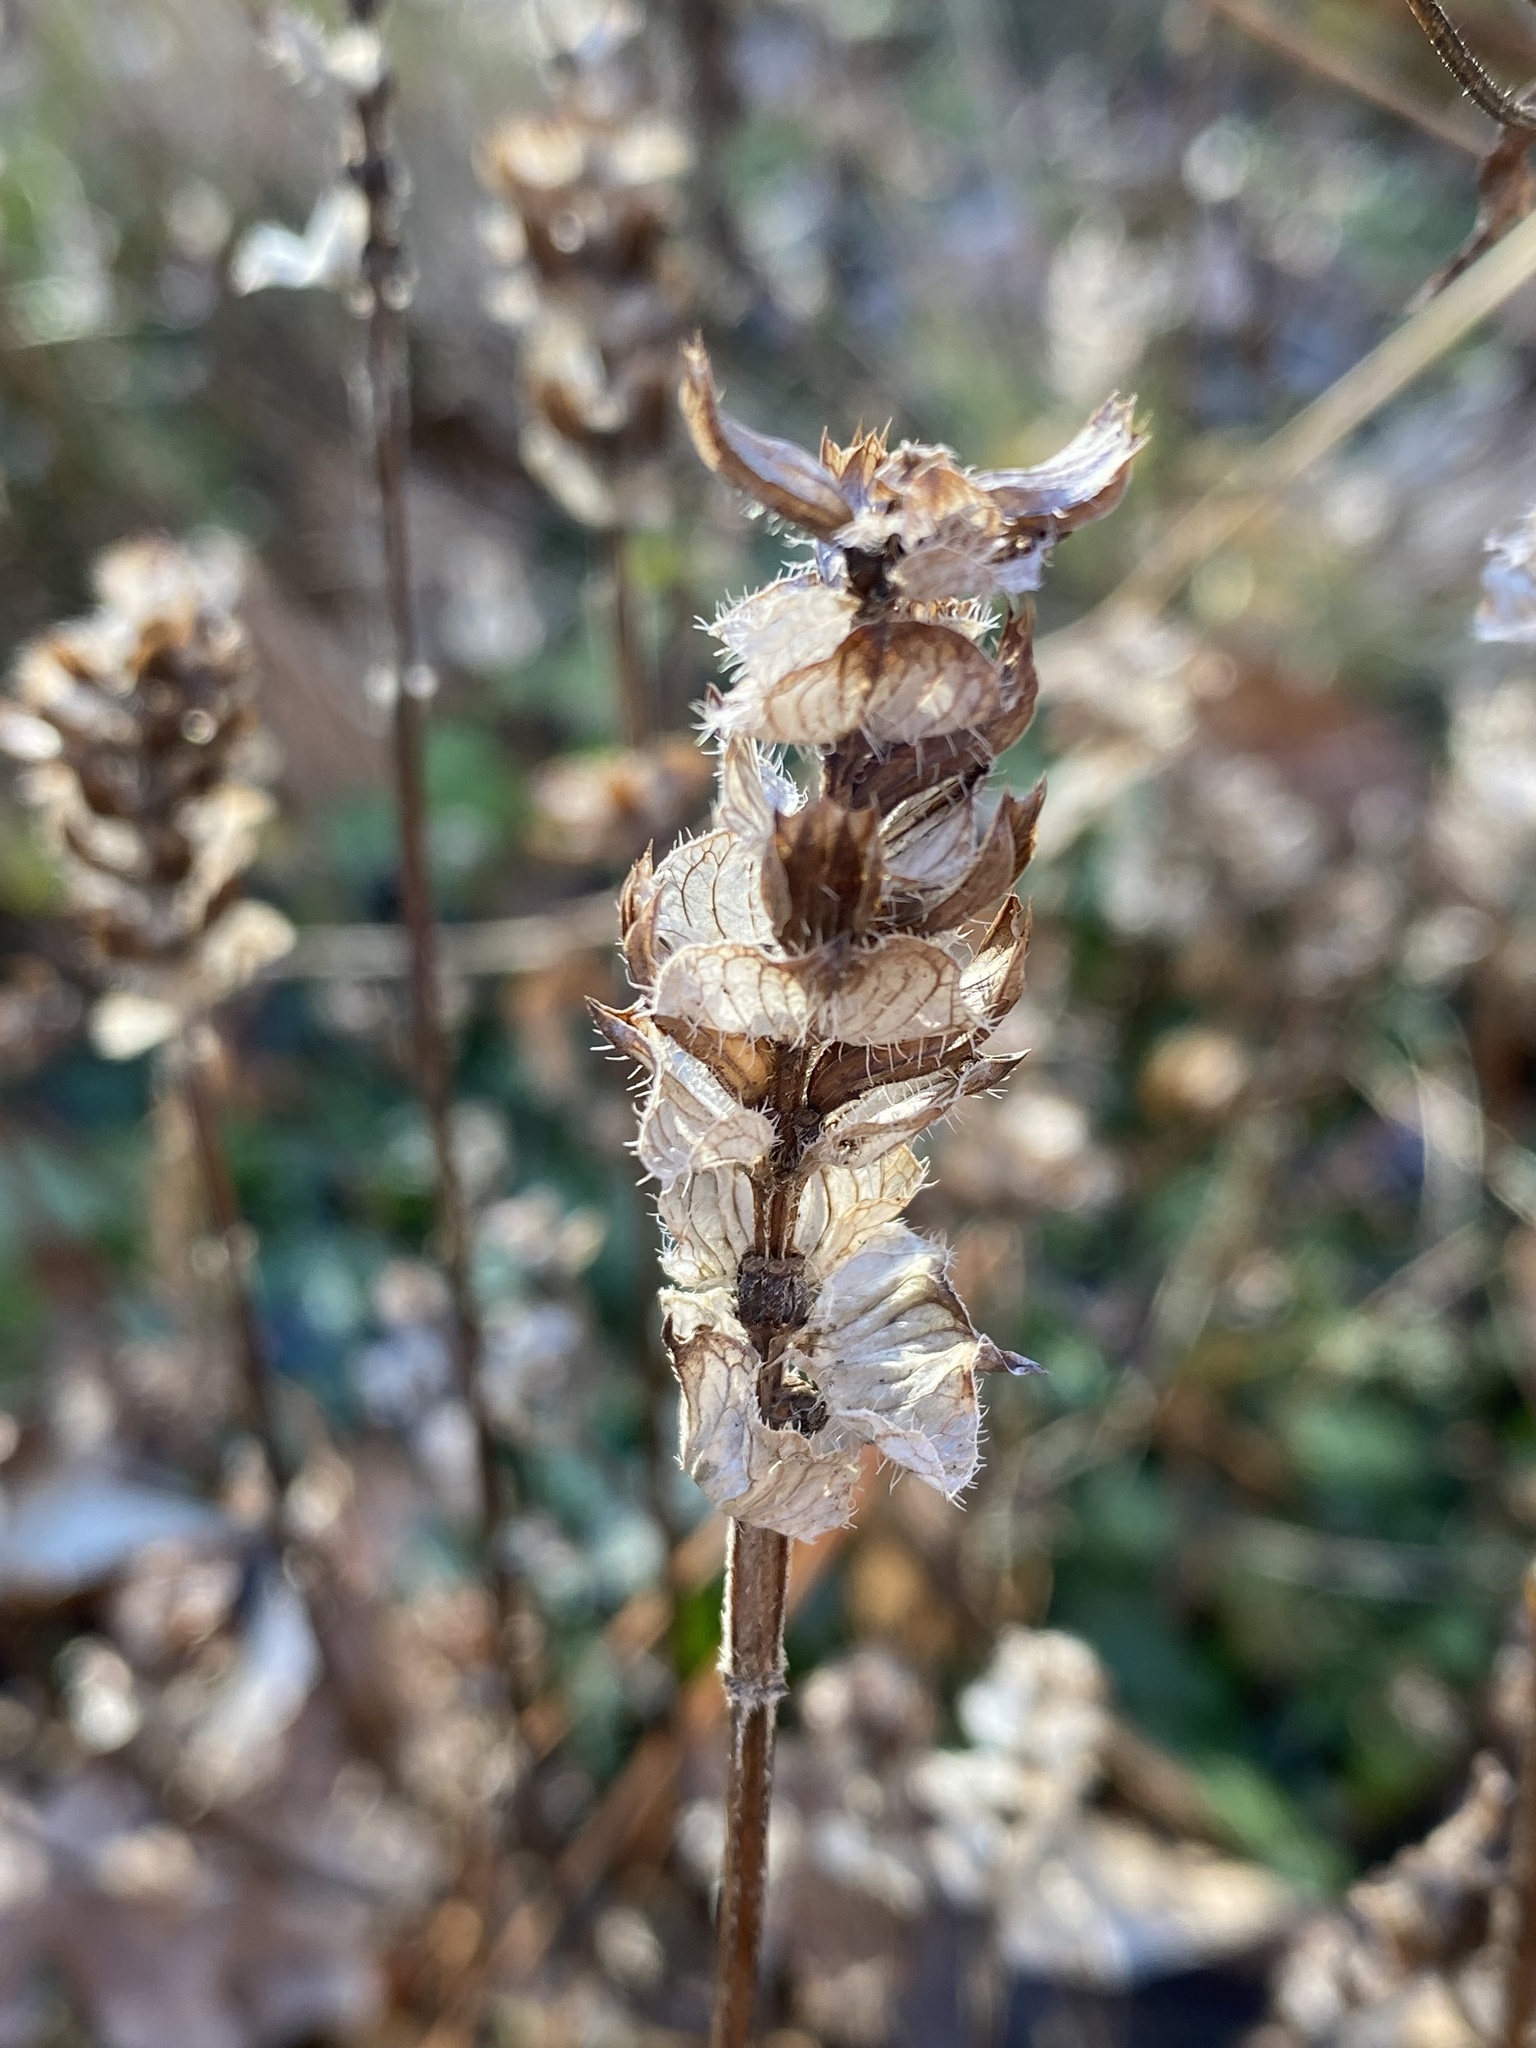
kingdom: Plantae
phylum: Tracheophyta
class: Magnoliopsida
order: Lamiales
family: Lamiaceae
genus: Prunella
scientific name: Prunella vulgaris
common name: Heal-all
